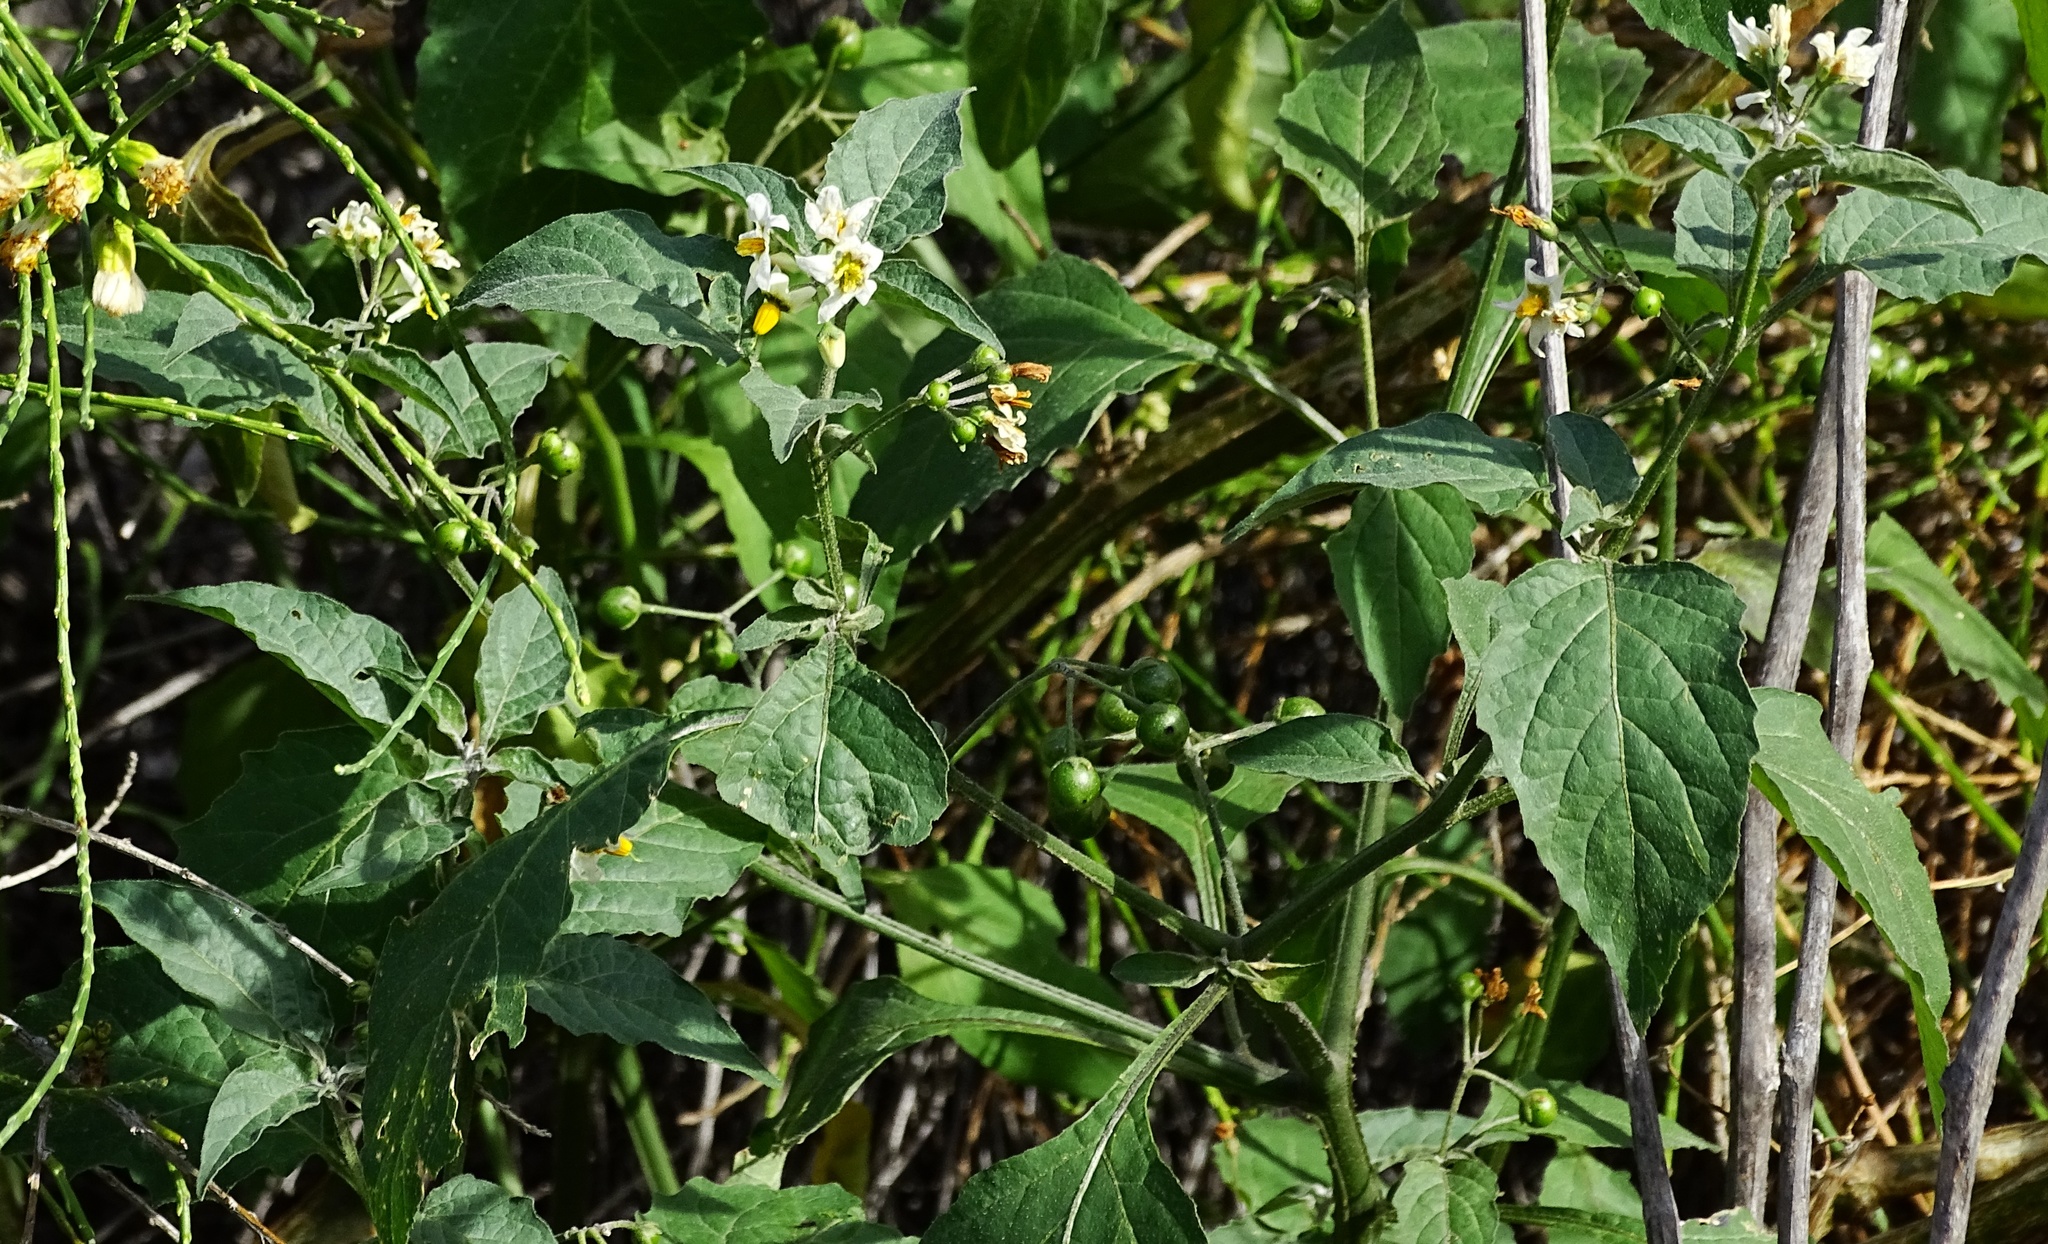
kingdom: Plantae
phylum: Tracheophyta
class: Magnoliopsida
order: Solanales
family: Solanaceae
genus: Solanum
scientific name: Solanum douglasii
